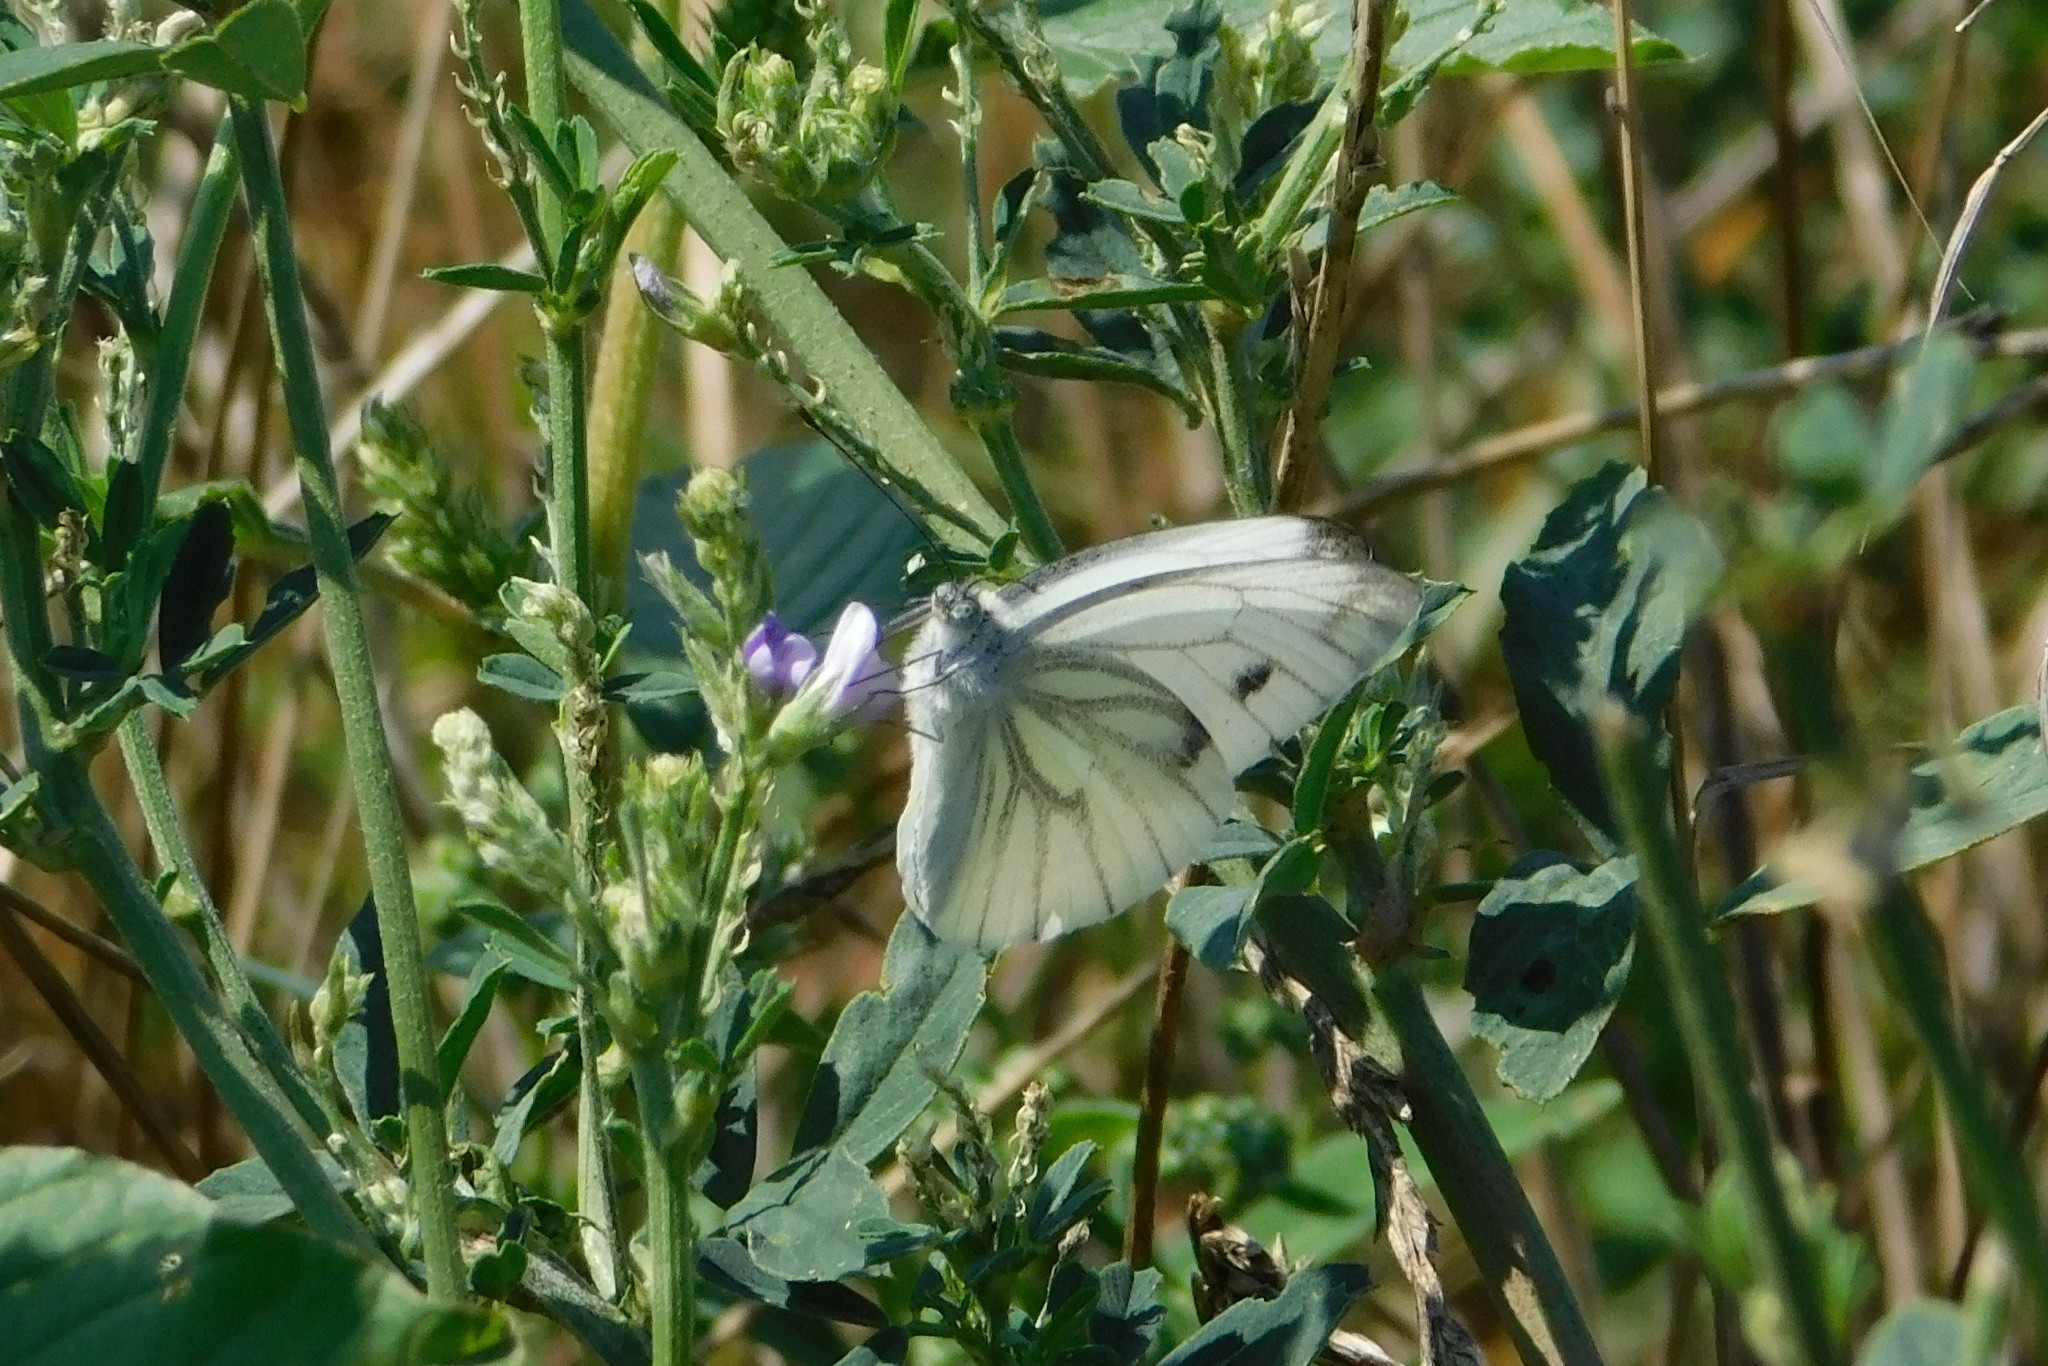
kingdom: Animalia
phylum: Arthropoda
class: Insecta
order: Lepidoptera
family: Pieridae
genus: Pieris
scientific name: Pieris napi
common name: Green-veined white
